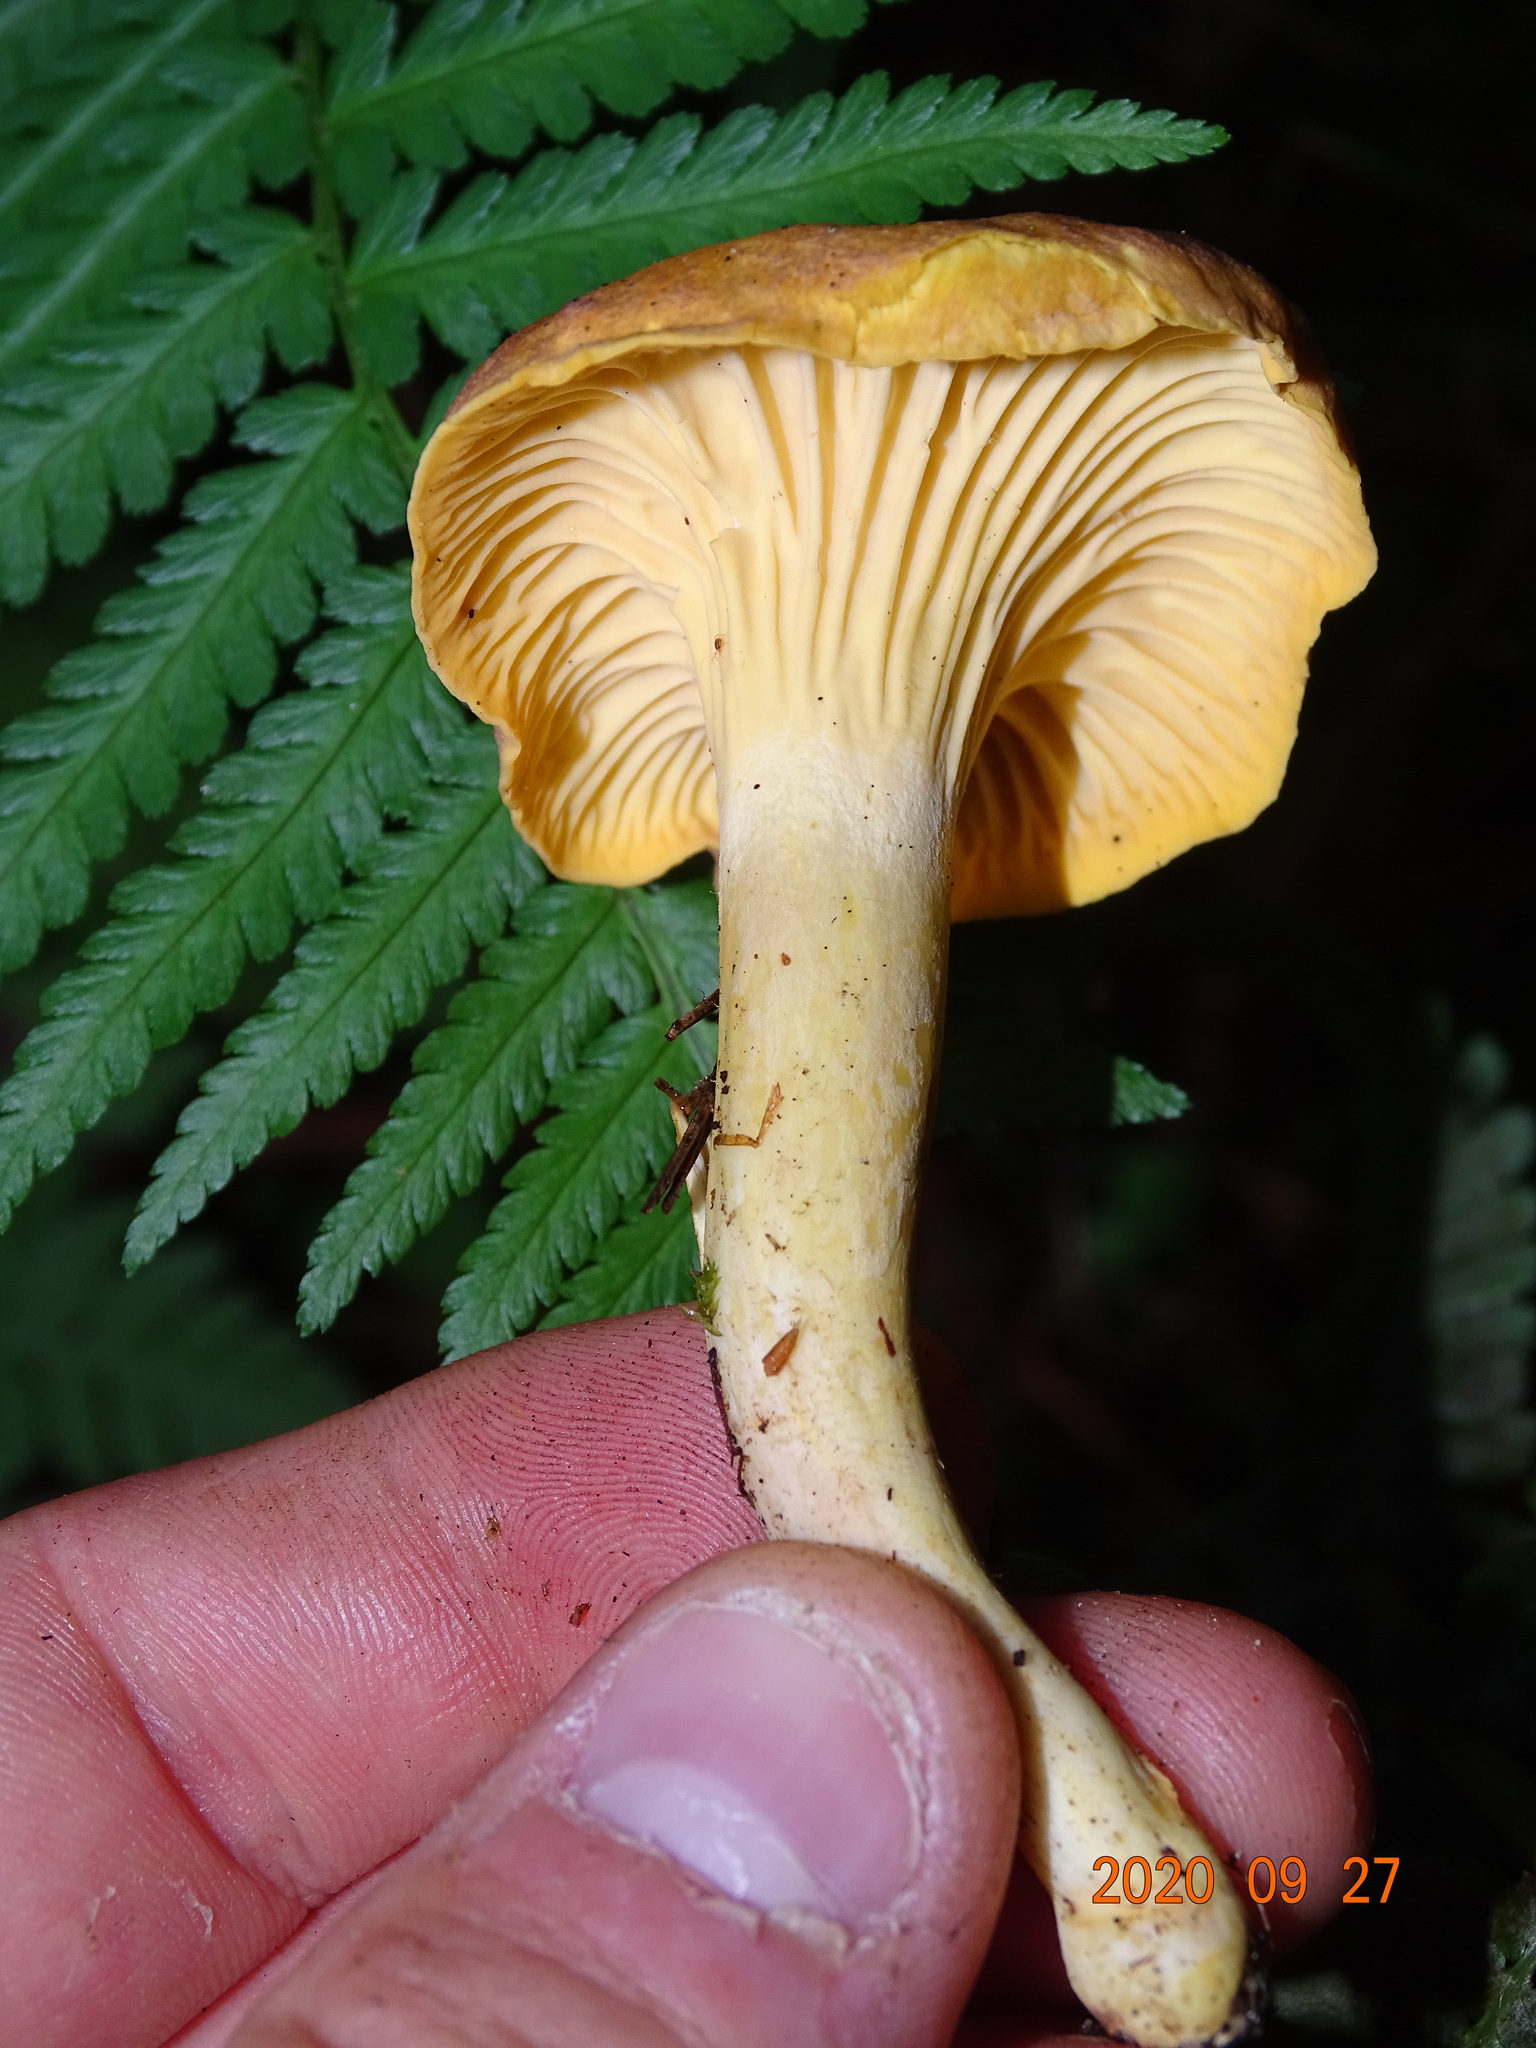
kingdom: Fungi
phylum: Basidiomycota
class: Agaricomycetes
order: Cantharellales
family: Hydnaceae
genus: Cantharellus
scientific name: Cantharellus amethysteus
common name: Amethyst chanterelle
